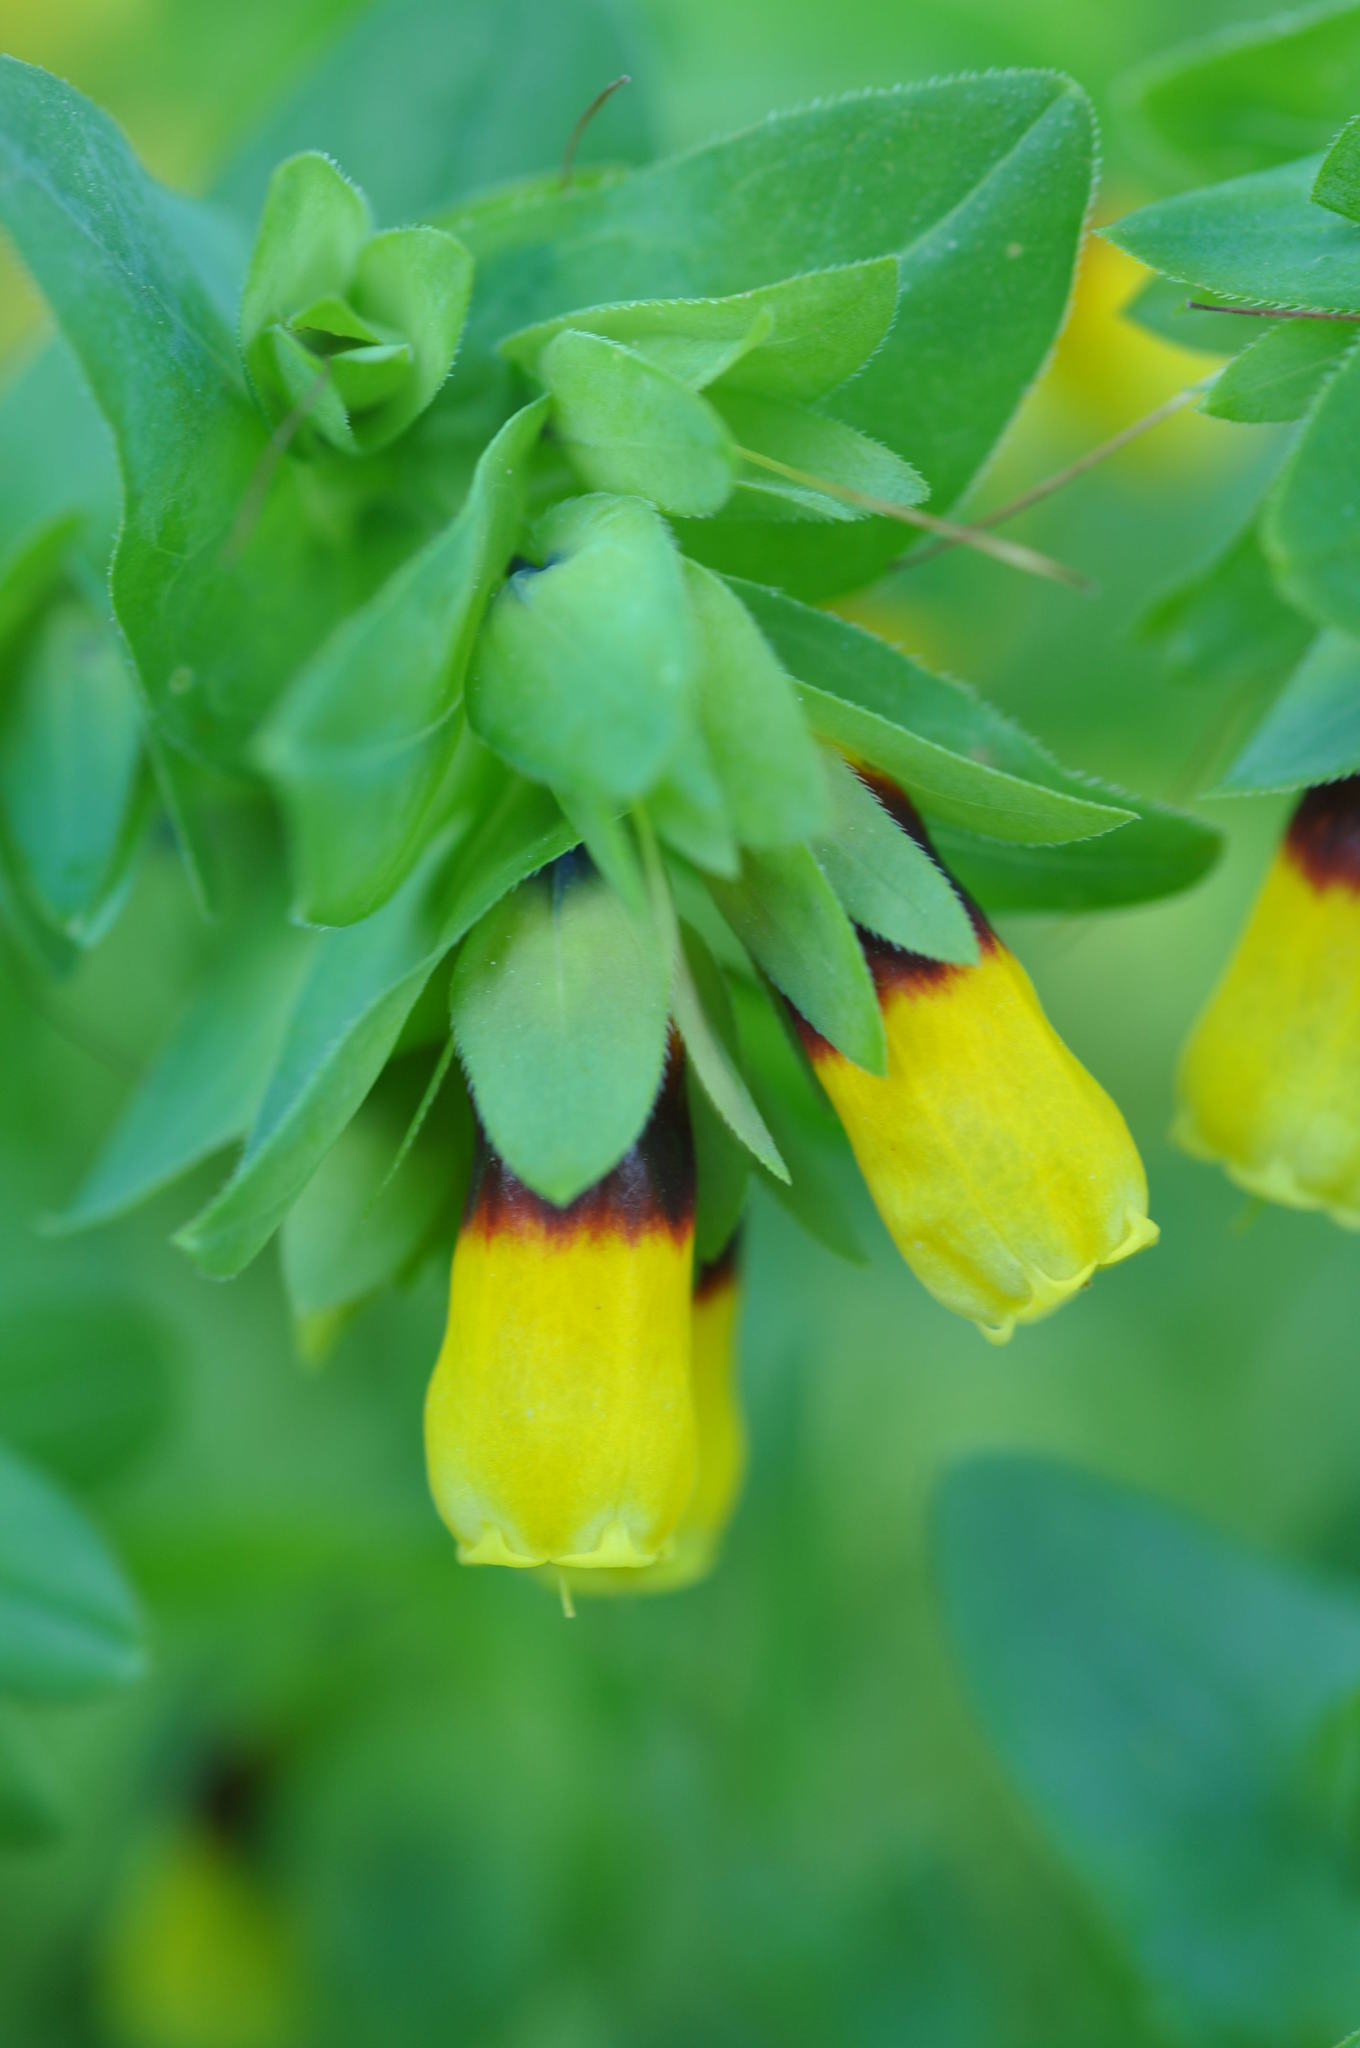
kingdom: Plantae
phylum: Tracheophyta
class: Magnoliopsida
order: Boraginales
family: Boraginaceae
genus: Cerinthe
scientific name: Cerinthe major
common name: Greater honeywort
